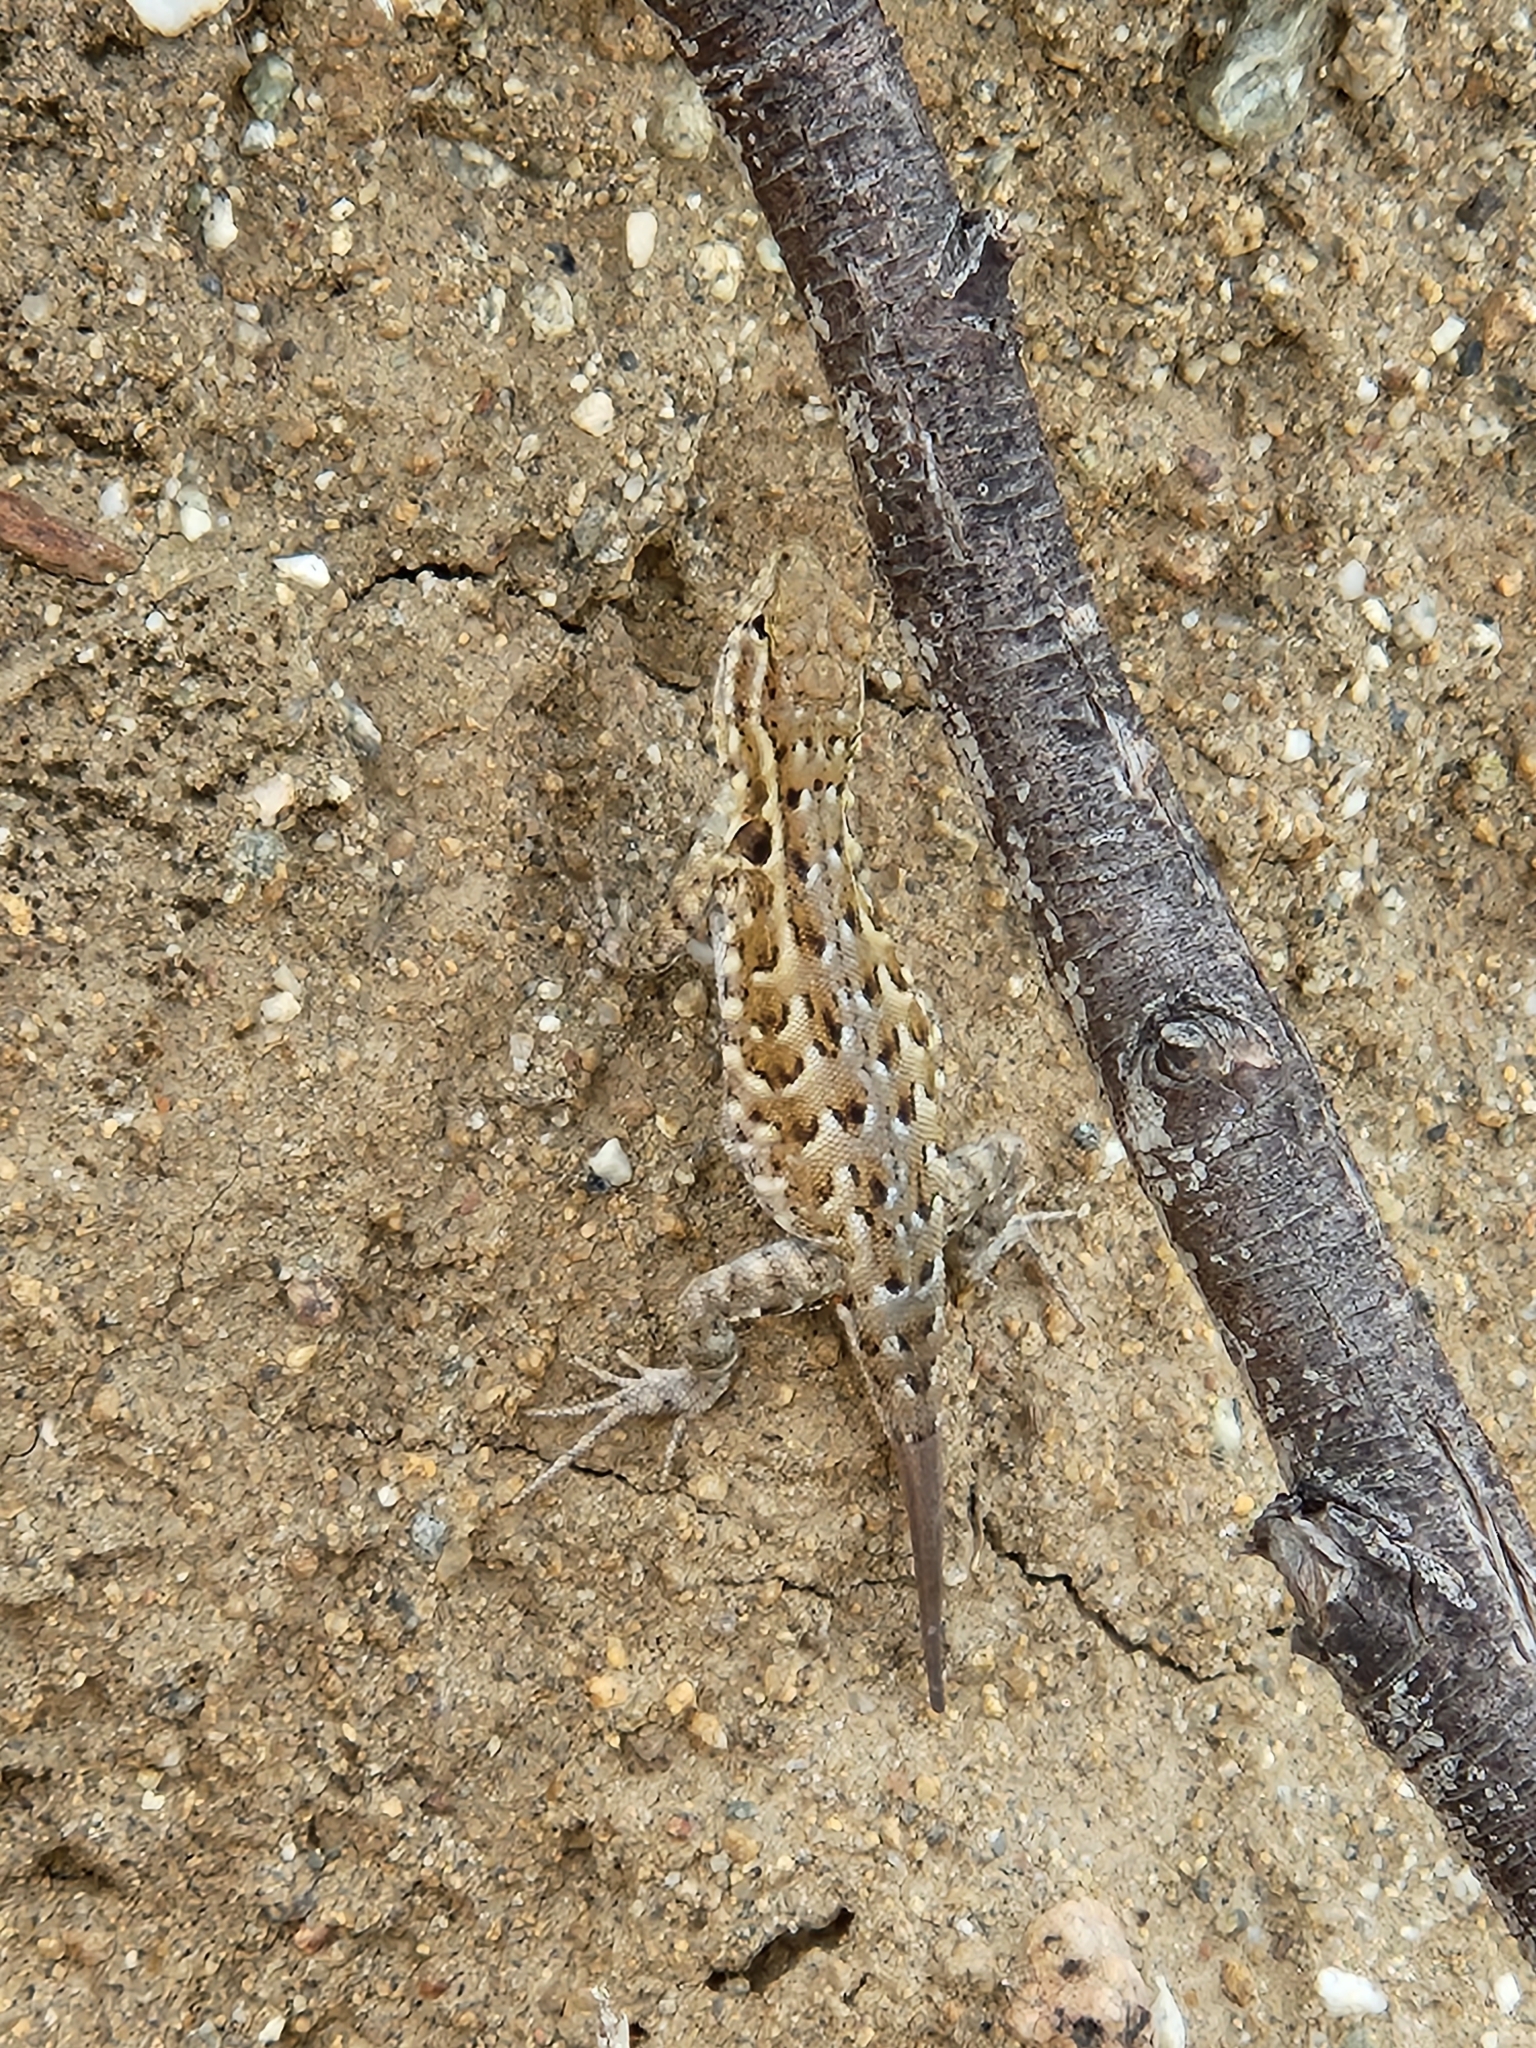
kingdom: Animalia
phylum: Chordata
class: Squamata
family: Phrynosomatidae
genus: Uta
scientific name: Uta stansburiana
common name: Side-blotched lizard
